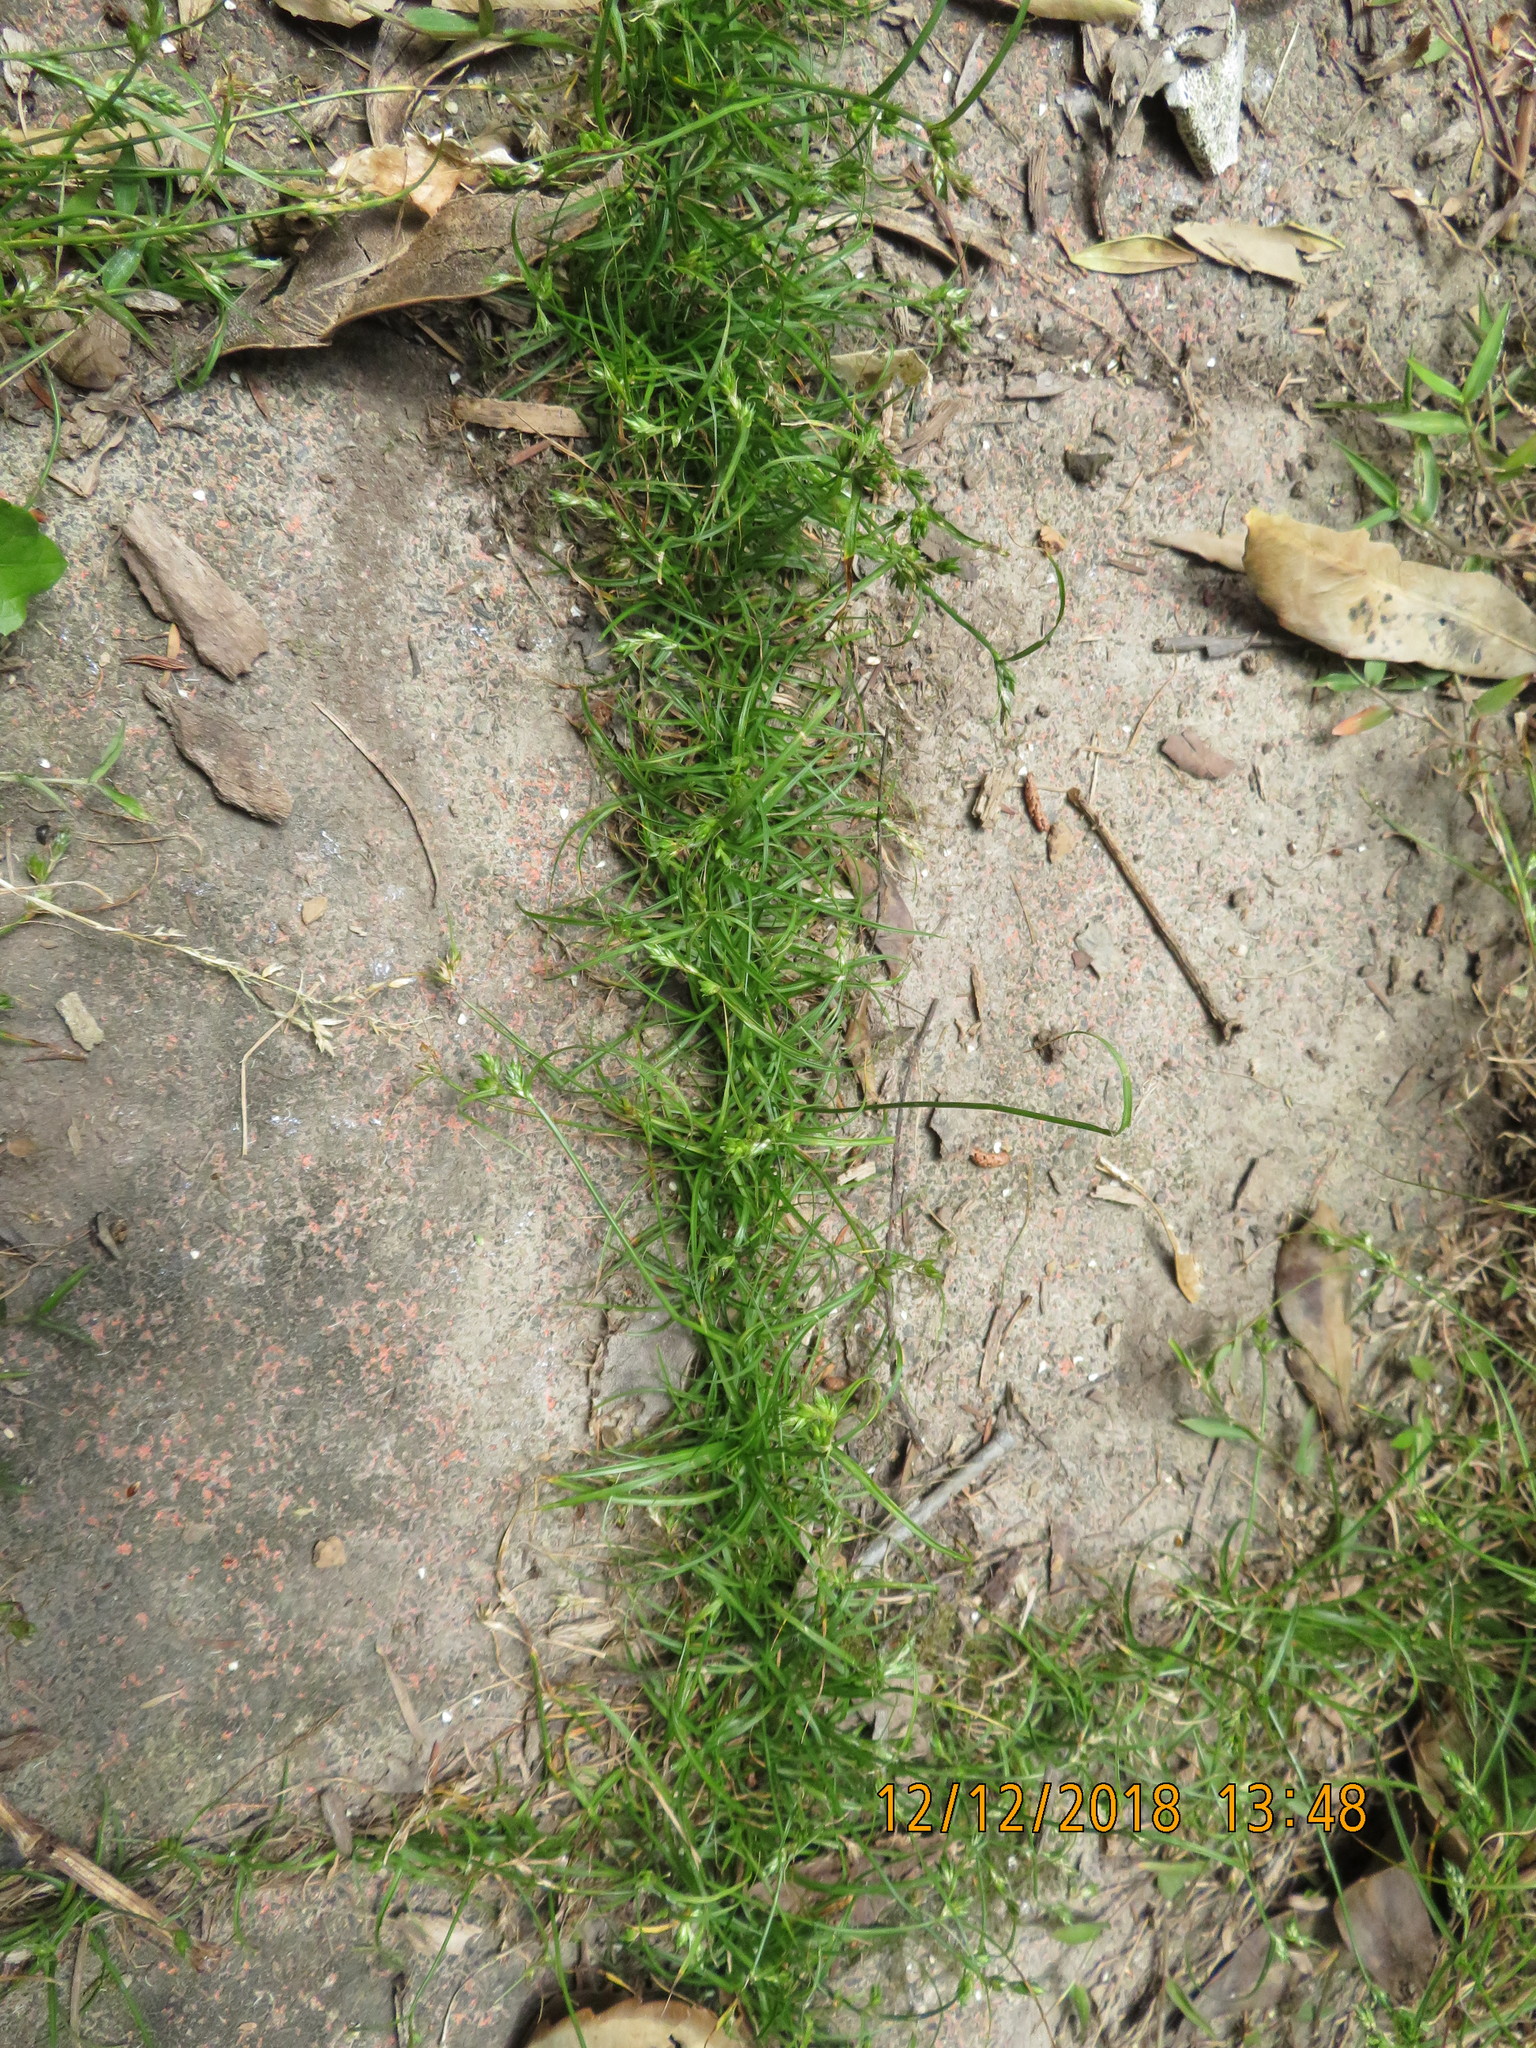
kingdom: Plantae
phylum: Tracheophyta
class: Liliopsida
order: Poales
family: Cyperaceae
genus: Carex
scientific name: Carex inversa
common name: Knob sedge
